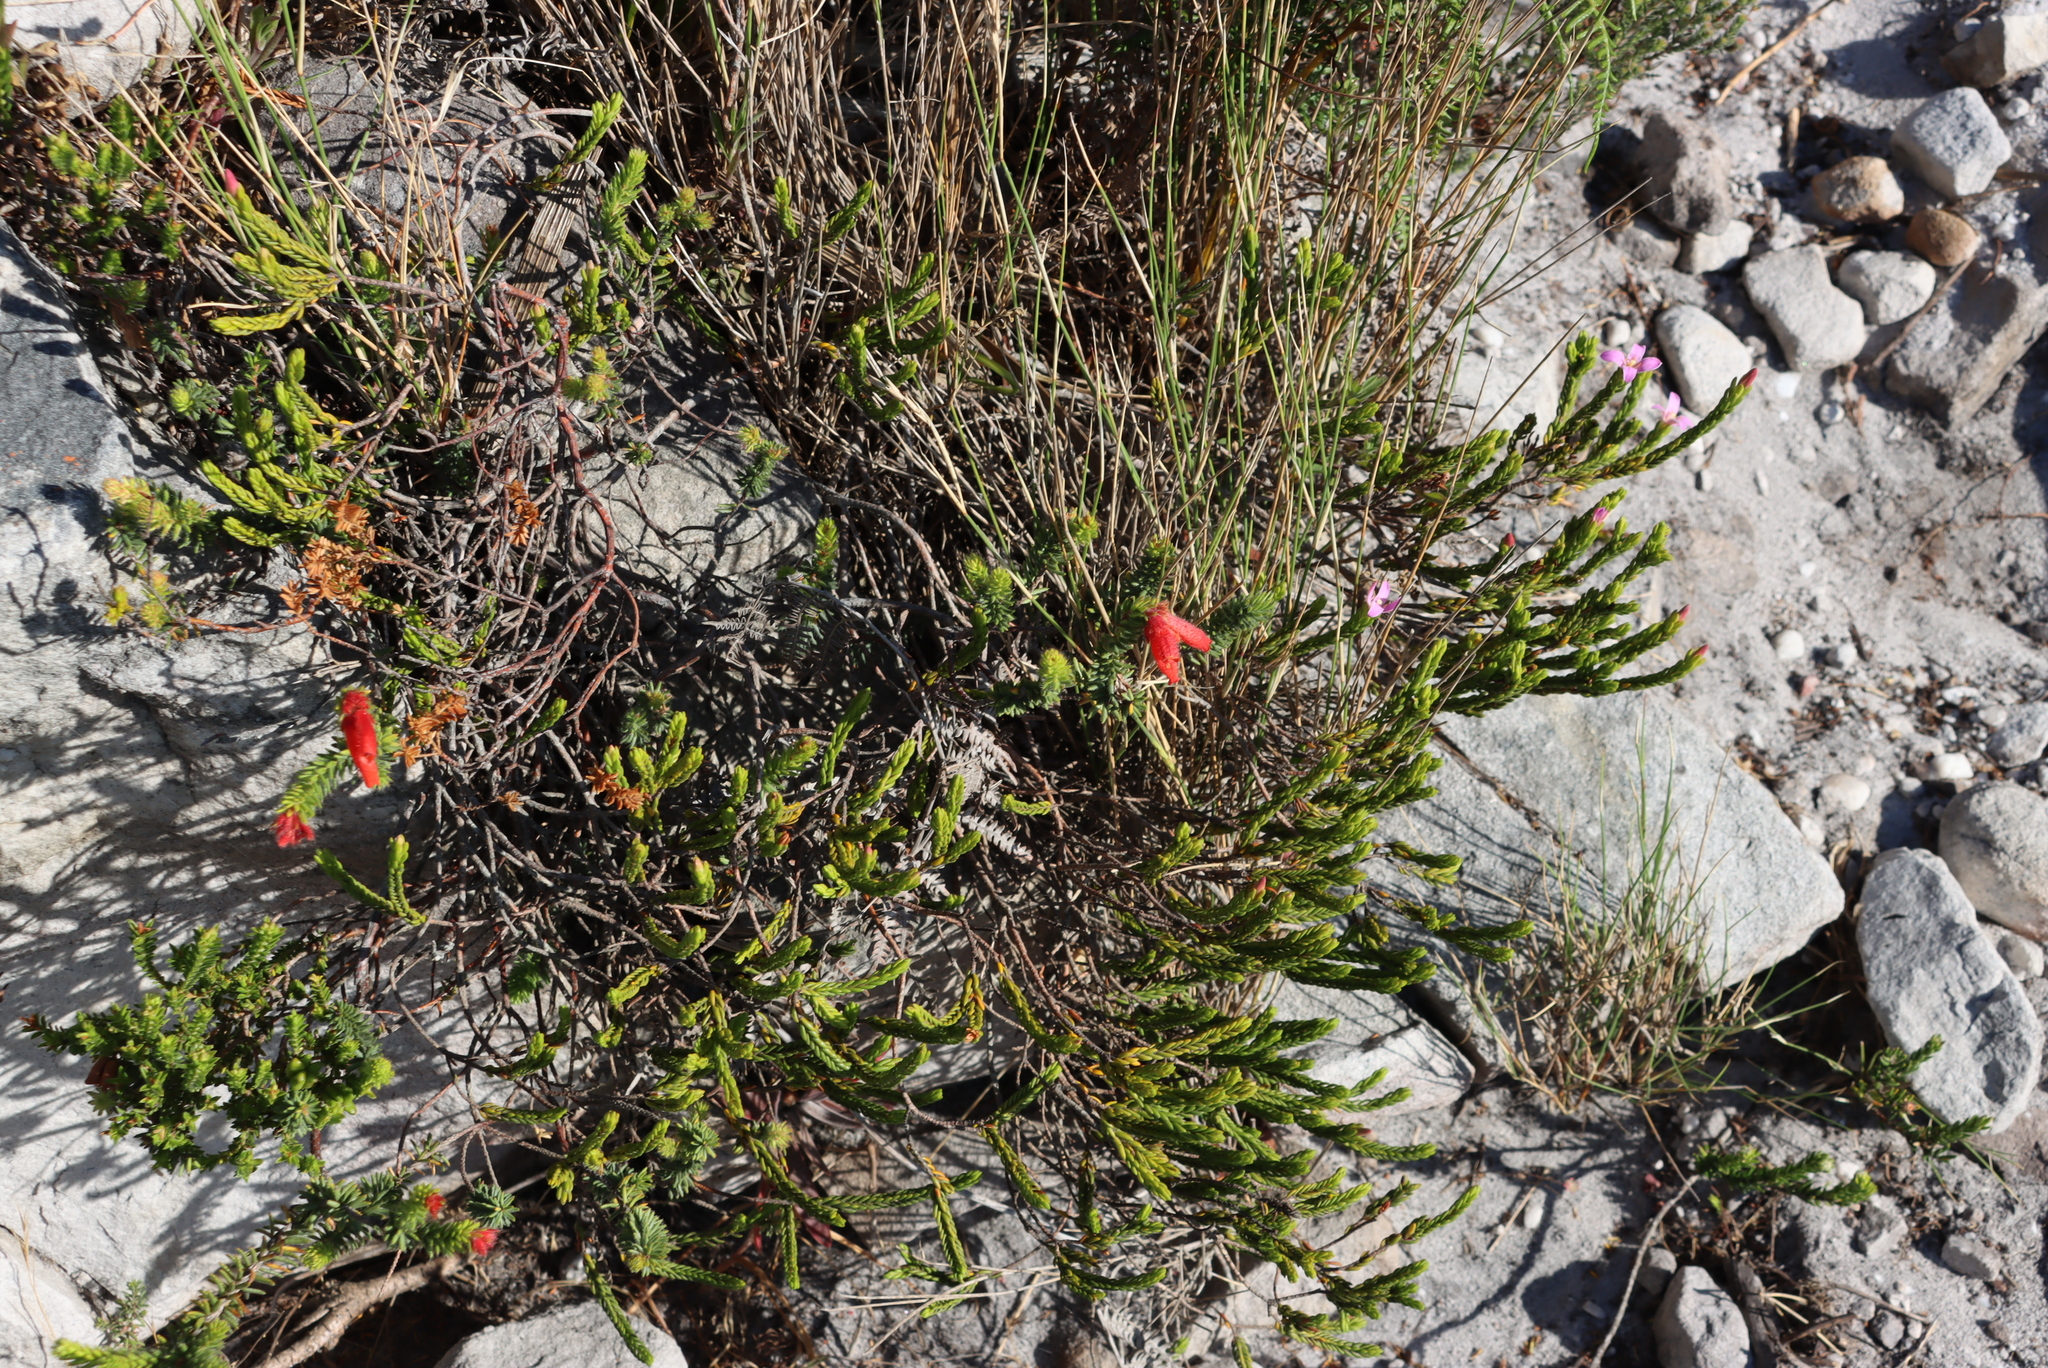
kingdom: Plantae
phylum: Tracheophyta
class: Magnoliopsida
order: Ericales
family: Ericaceae
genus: Erica
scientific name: Erica cerinthoides
